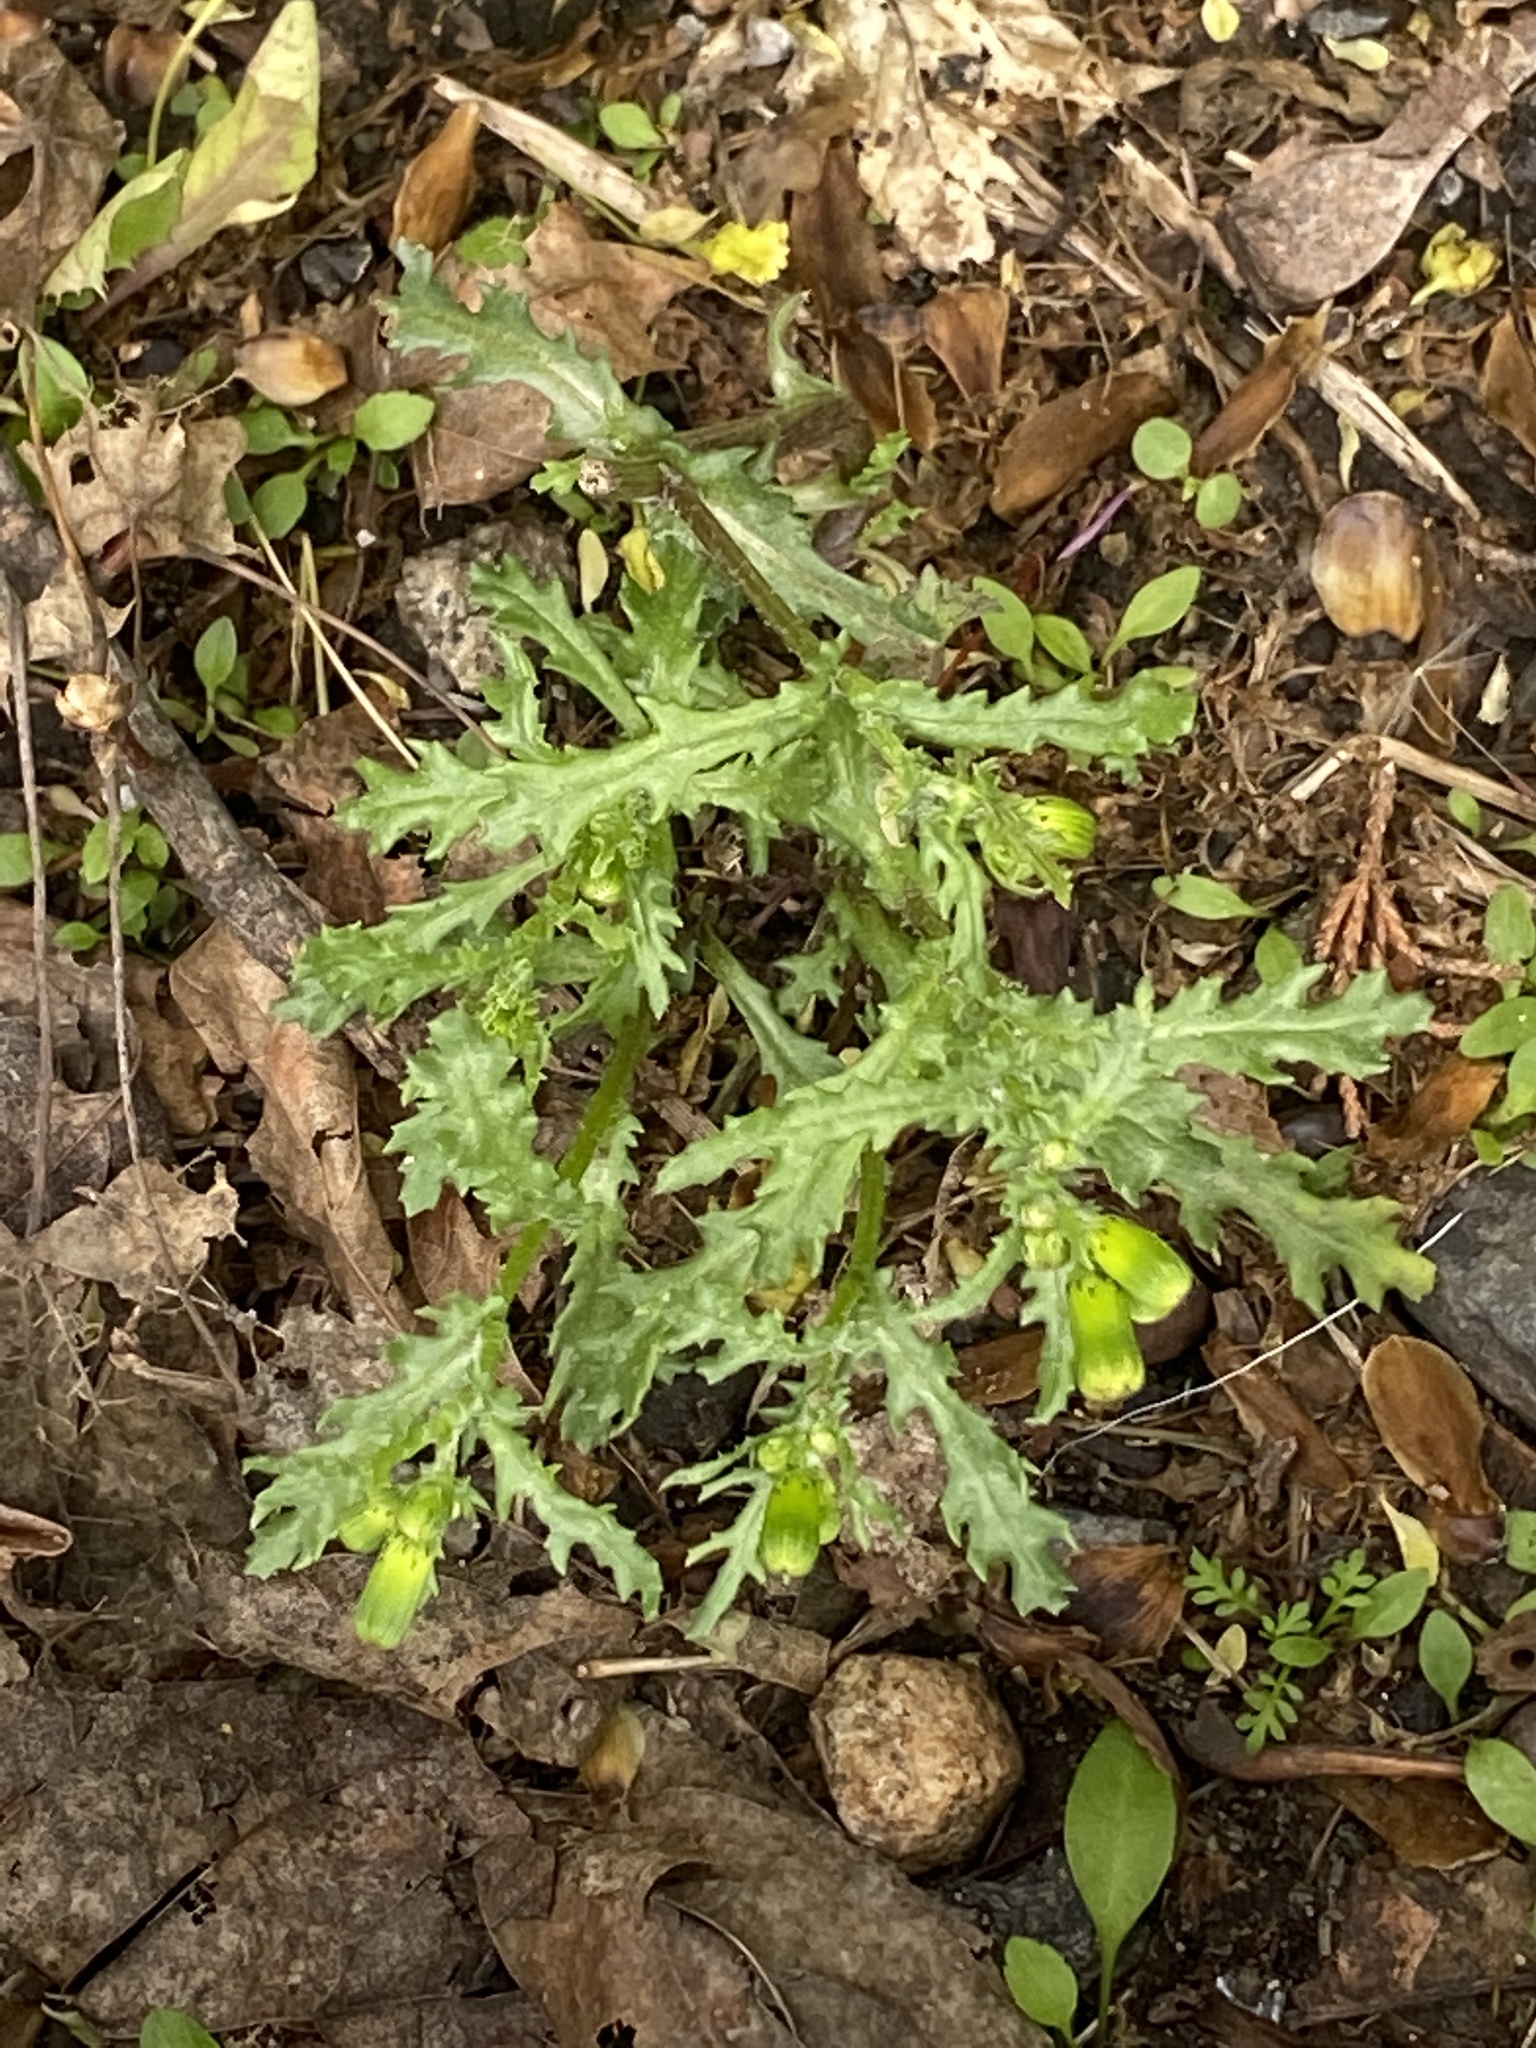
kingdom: Plantae
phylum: Tracheophyta
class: Magnoliopsida
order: Asterales
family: Asteraceae
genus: Senecio
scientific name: Senecio vulgaris
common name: Old-man-in-the-spring
